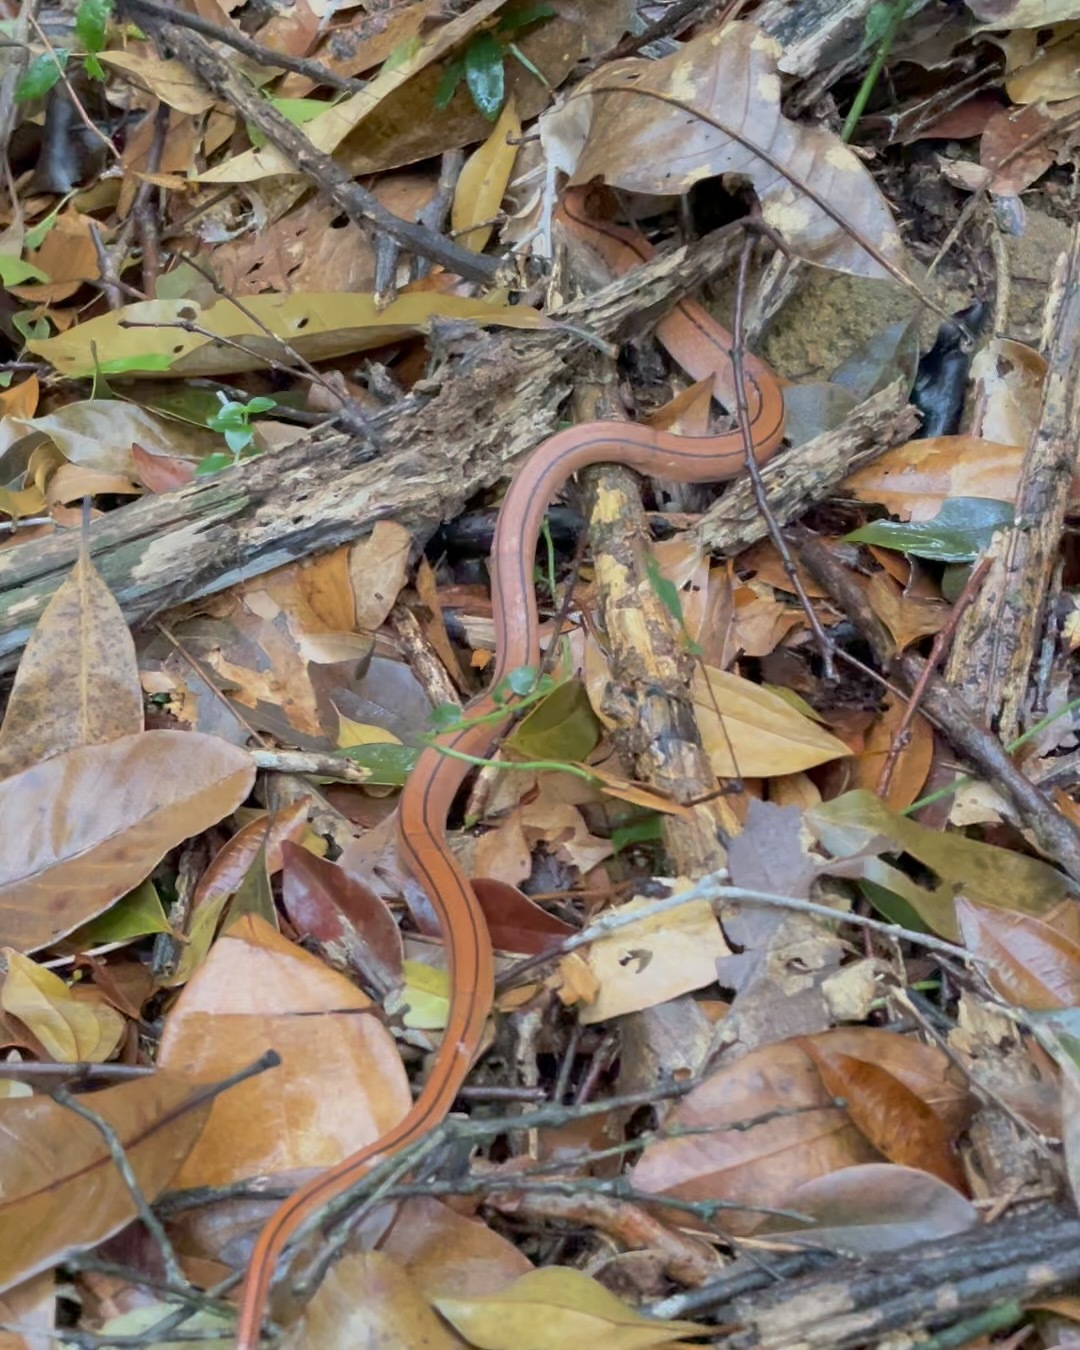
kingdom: Animalia
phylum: Chordata
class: Squamata
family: Colubridae
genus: Oreocryptophis
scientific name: Oreocryptophis porphyraceus
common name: Black-banded trinket snake
